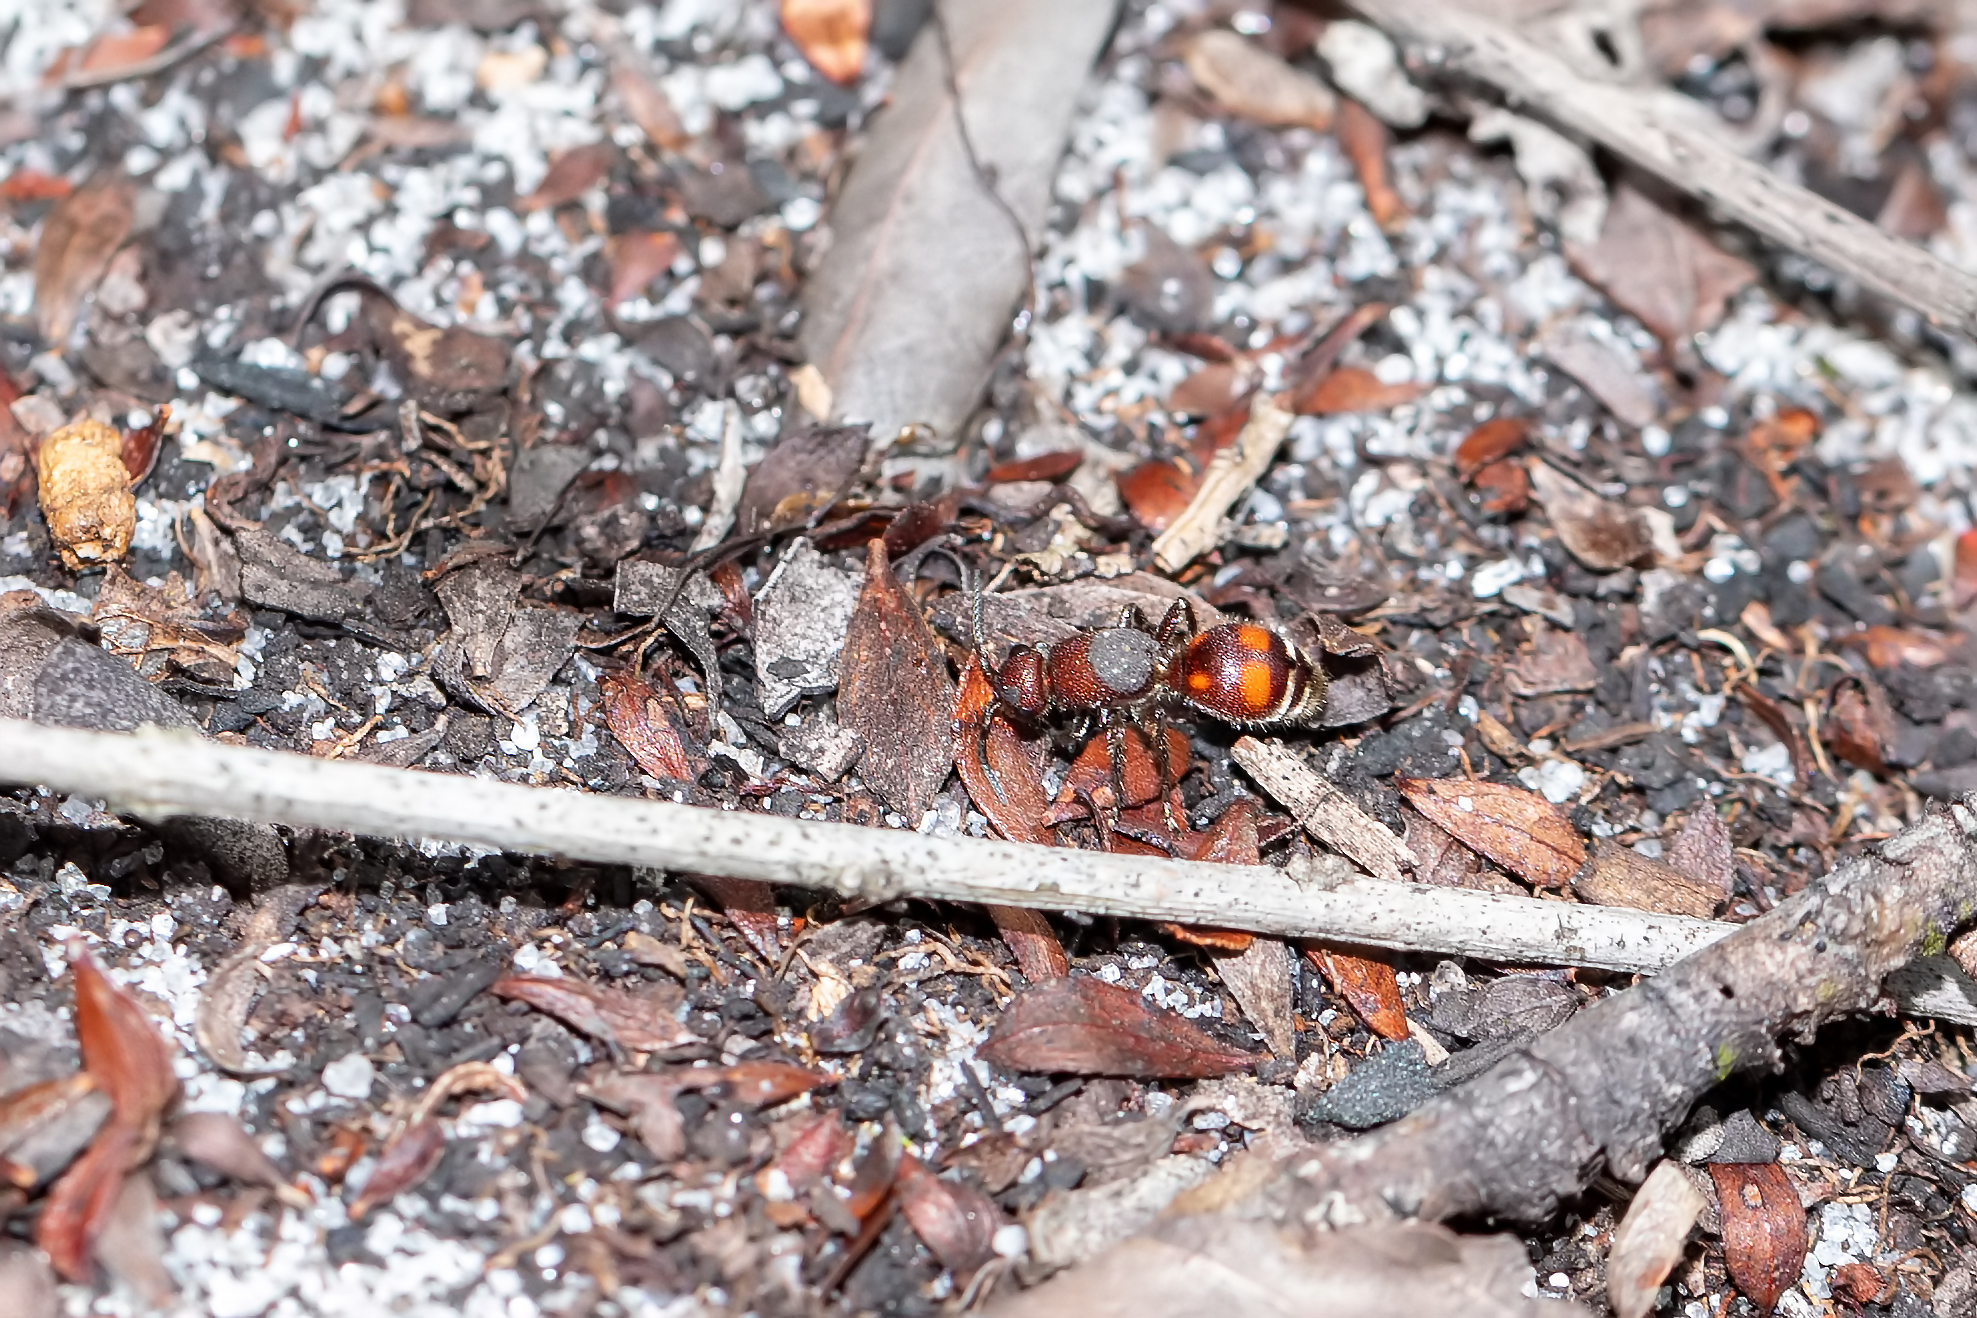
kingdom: Animalia
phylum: Arthropoda
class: Insecta
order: Hymenoptera
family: Mutillidae
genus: Dasymutilla
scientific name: Dasymutilla
